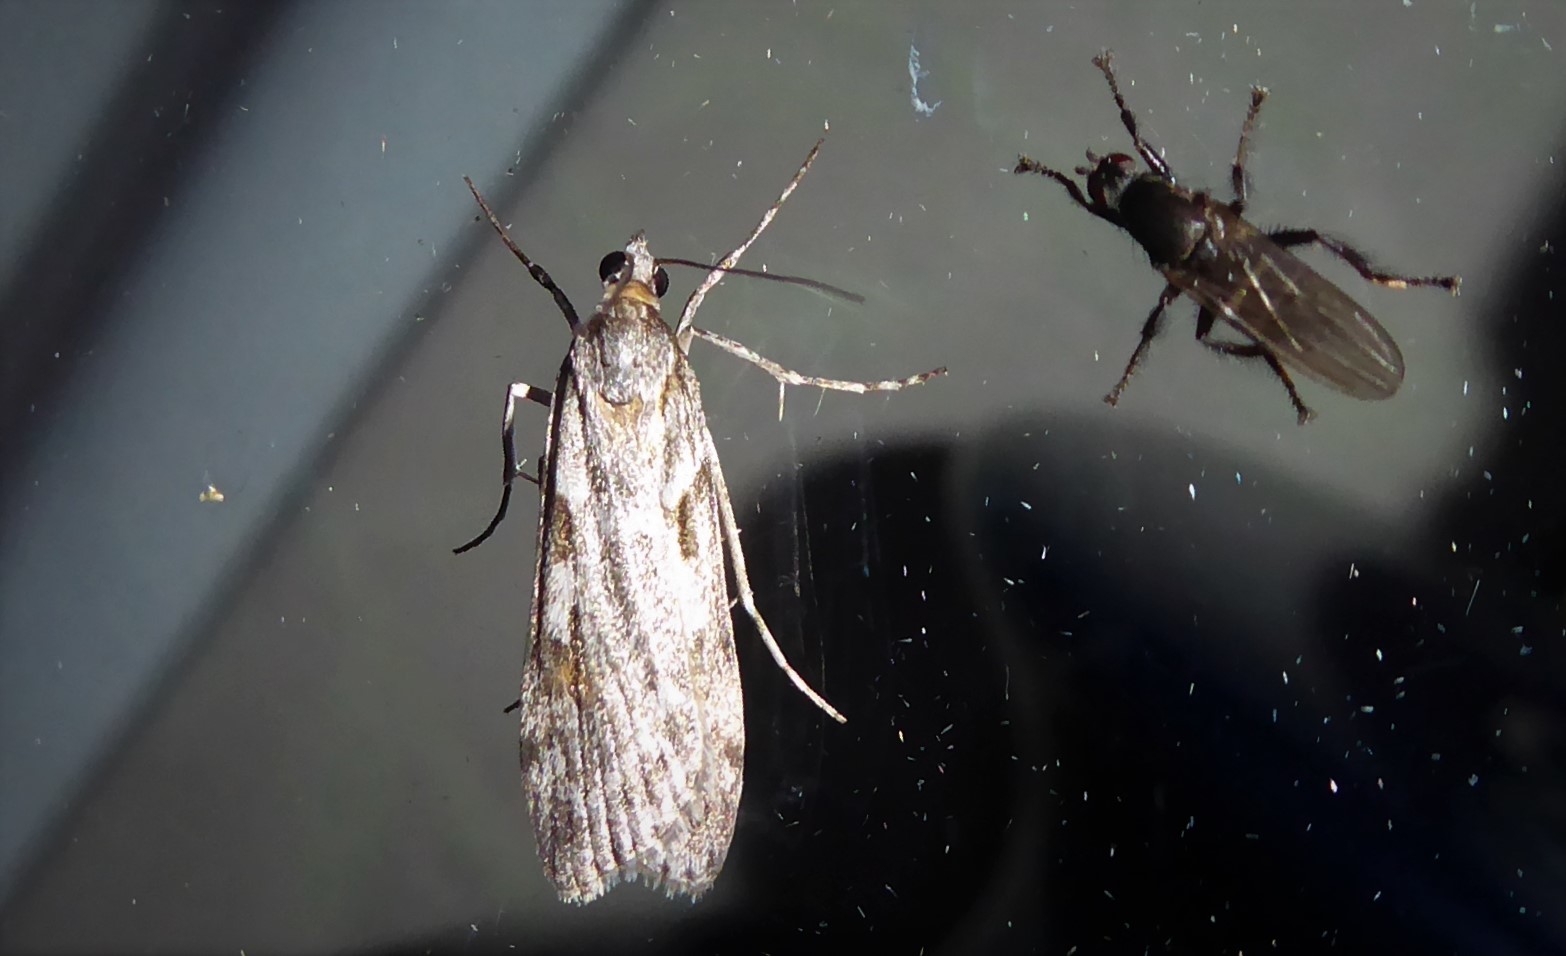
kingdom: Animalia
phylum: Arthropoda
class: Insecta
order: Lepidoptera
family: Crambidae
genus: Scoparia
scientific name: Scoparia halopis
